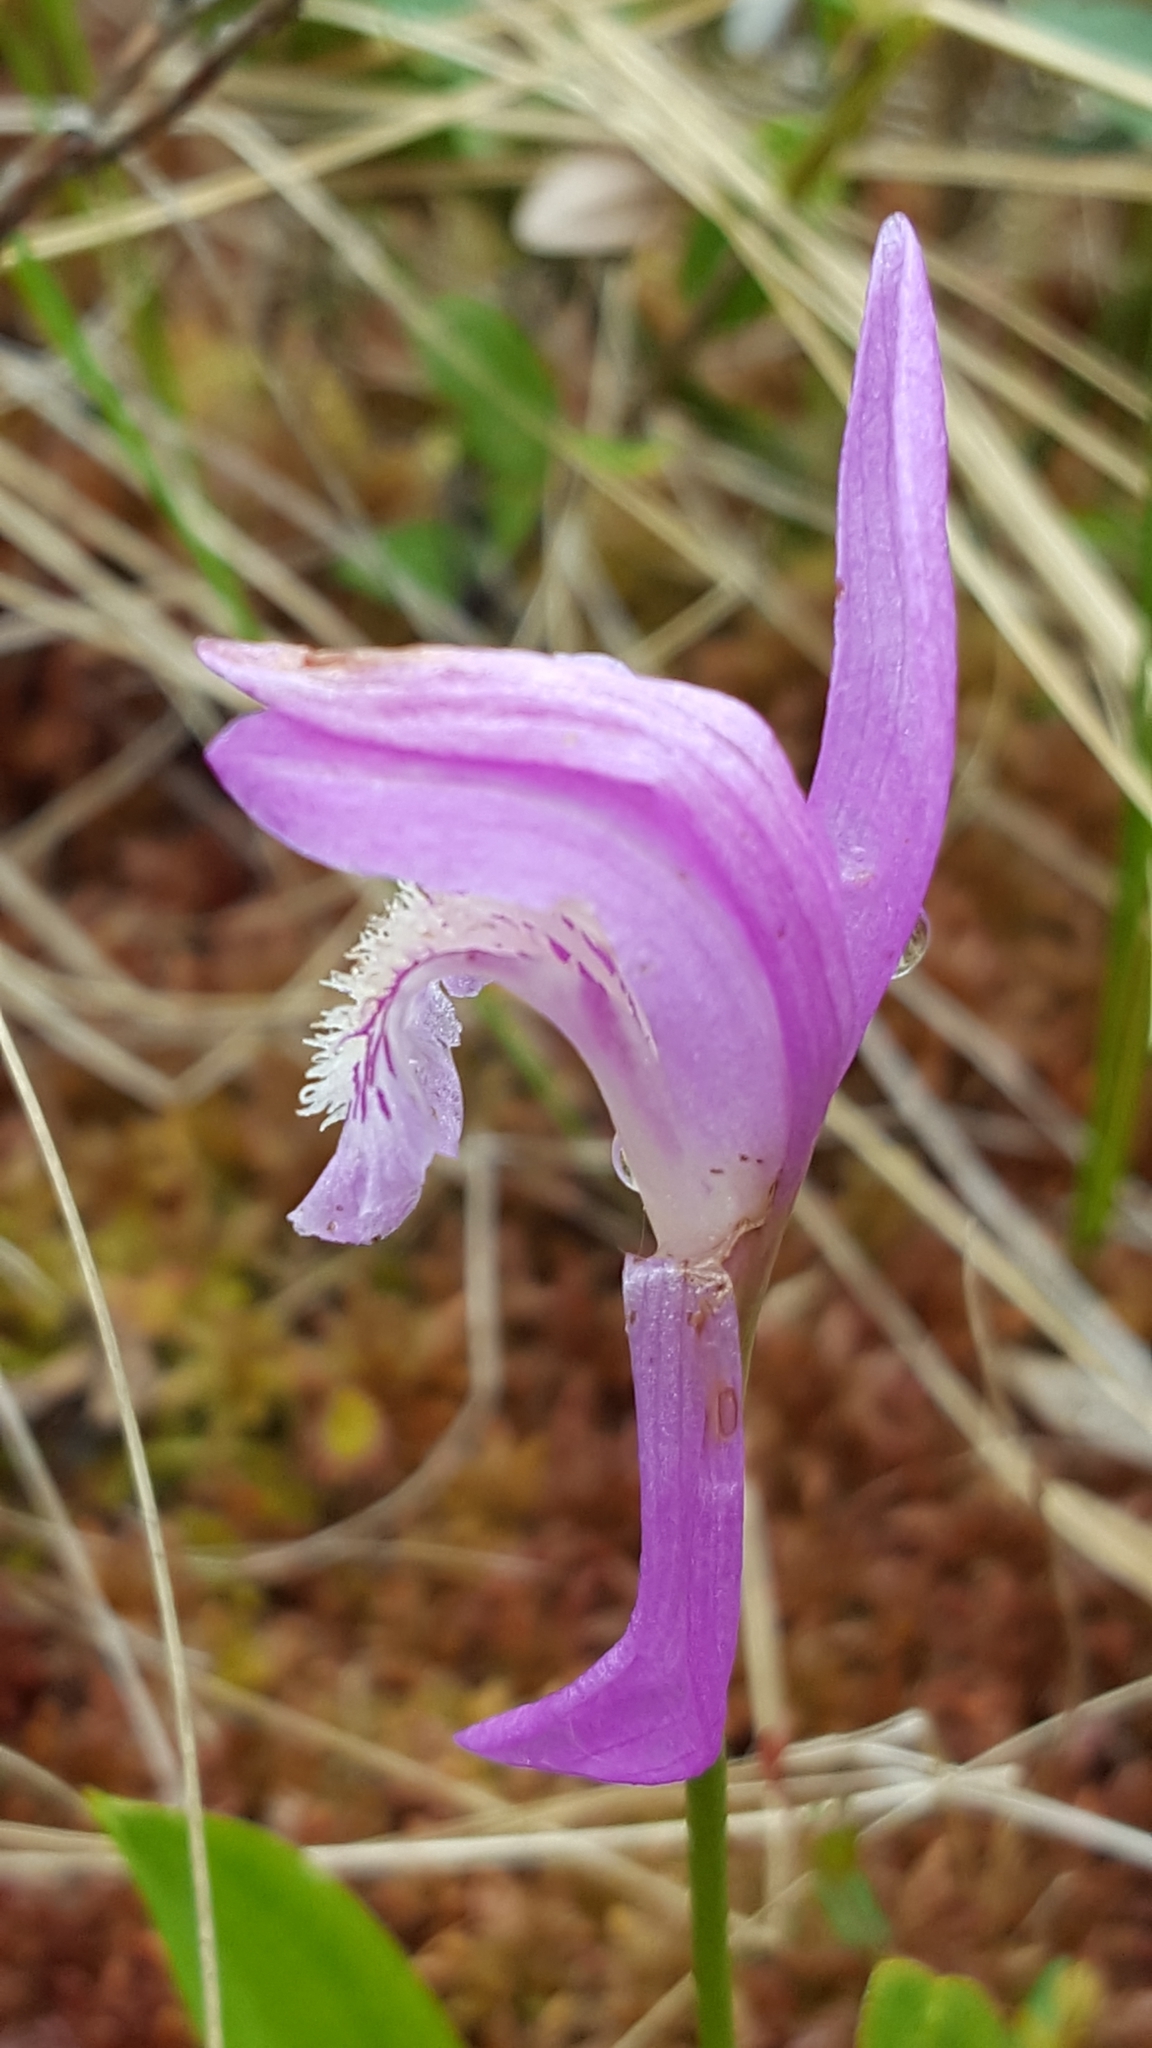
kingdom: Plantae
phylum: Tracheophyta
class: Liliopsida
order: Asparagales
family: Orchidaceae
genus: Arethusa
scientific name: Arethusa bulbosa
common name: Arethusa
